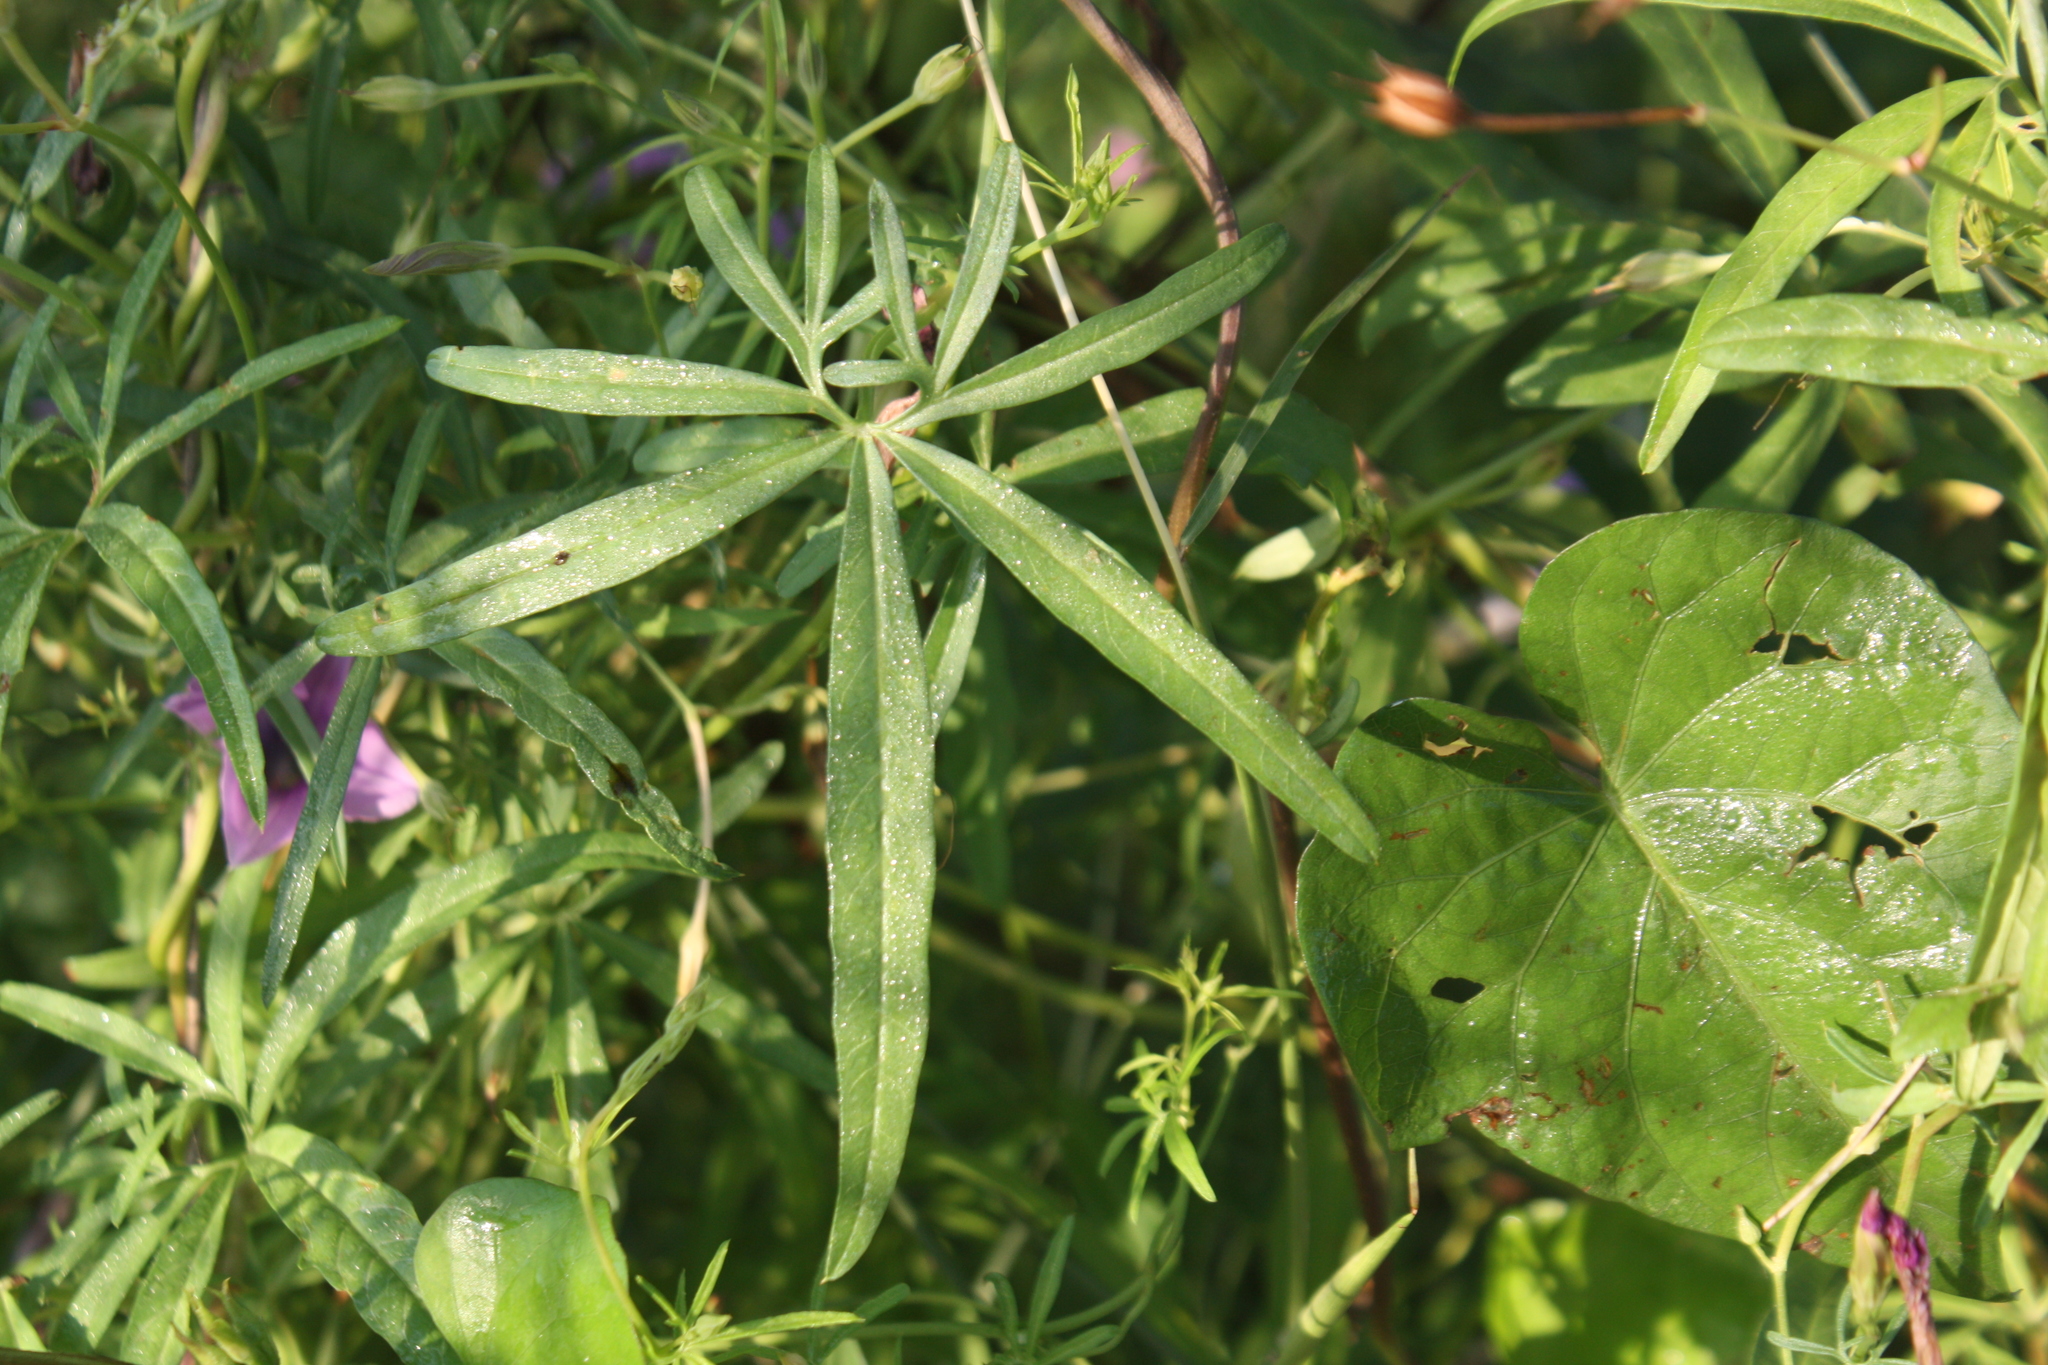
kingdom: Plantae
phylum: Tracheophyta
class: Magnoliopsida
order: Solanales
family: Convolvulaceae
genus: Ipomoea
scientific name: Ipomoea ternifolia
